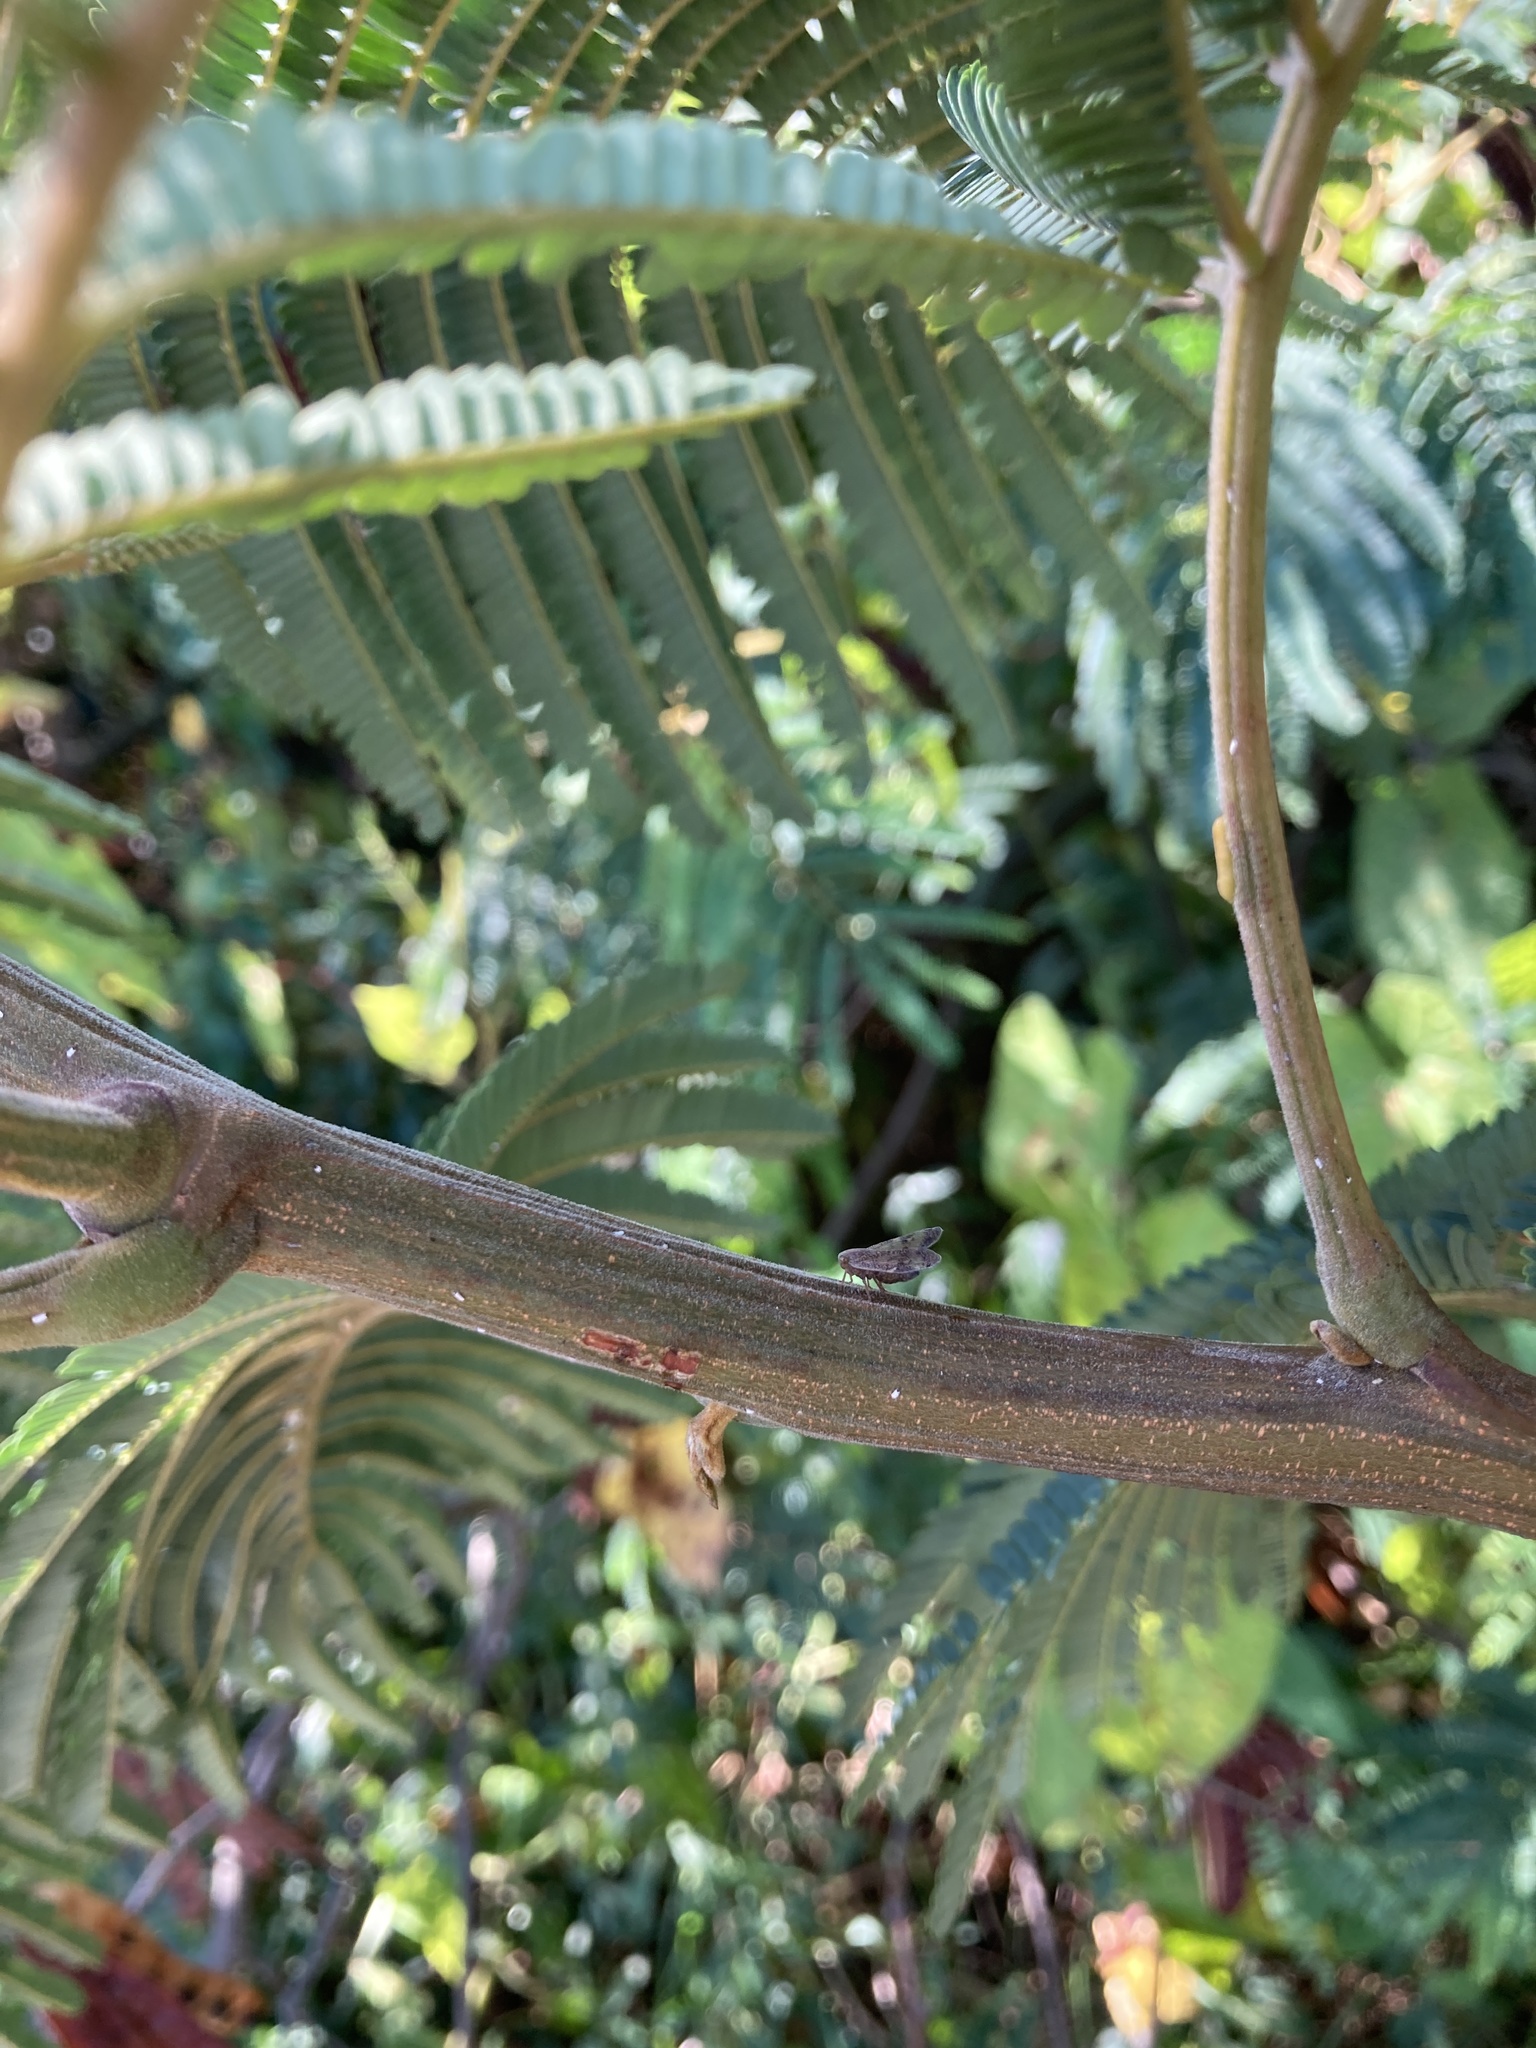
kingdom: Animalia
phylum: Arthropoda
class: Insecta
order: Hemiptera
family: Ricaniidae
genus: Scolypopa
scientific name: Scolypopa australis
